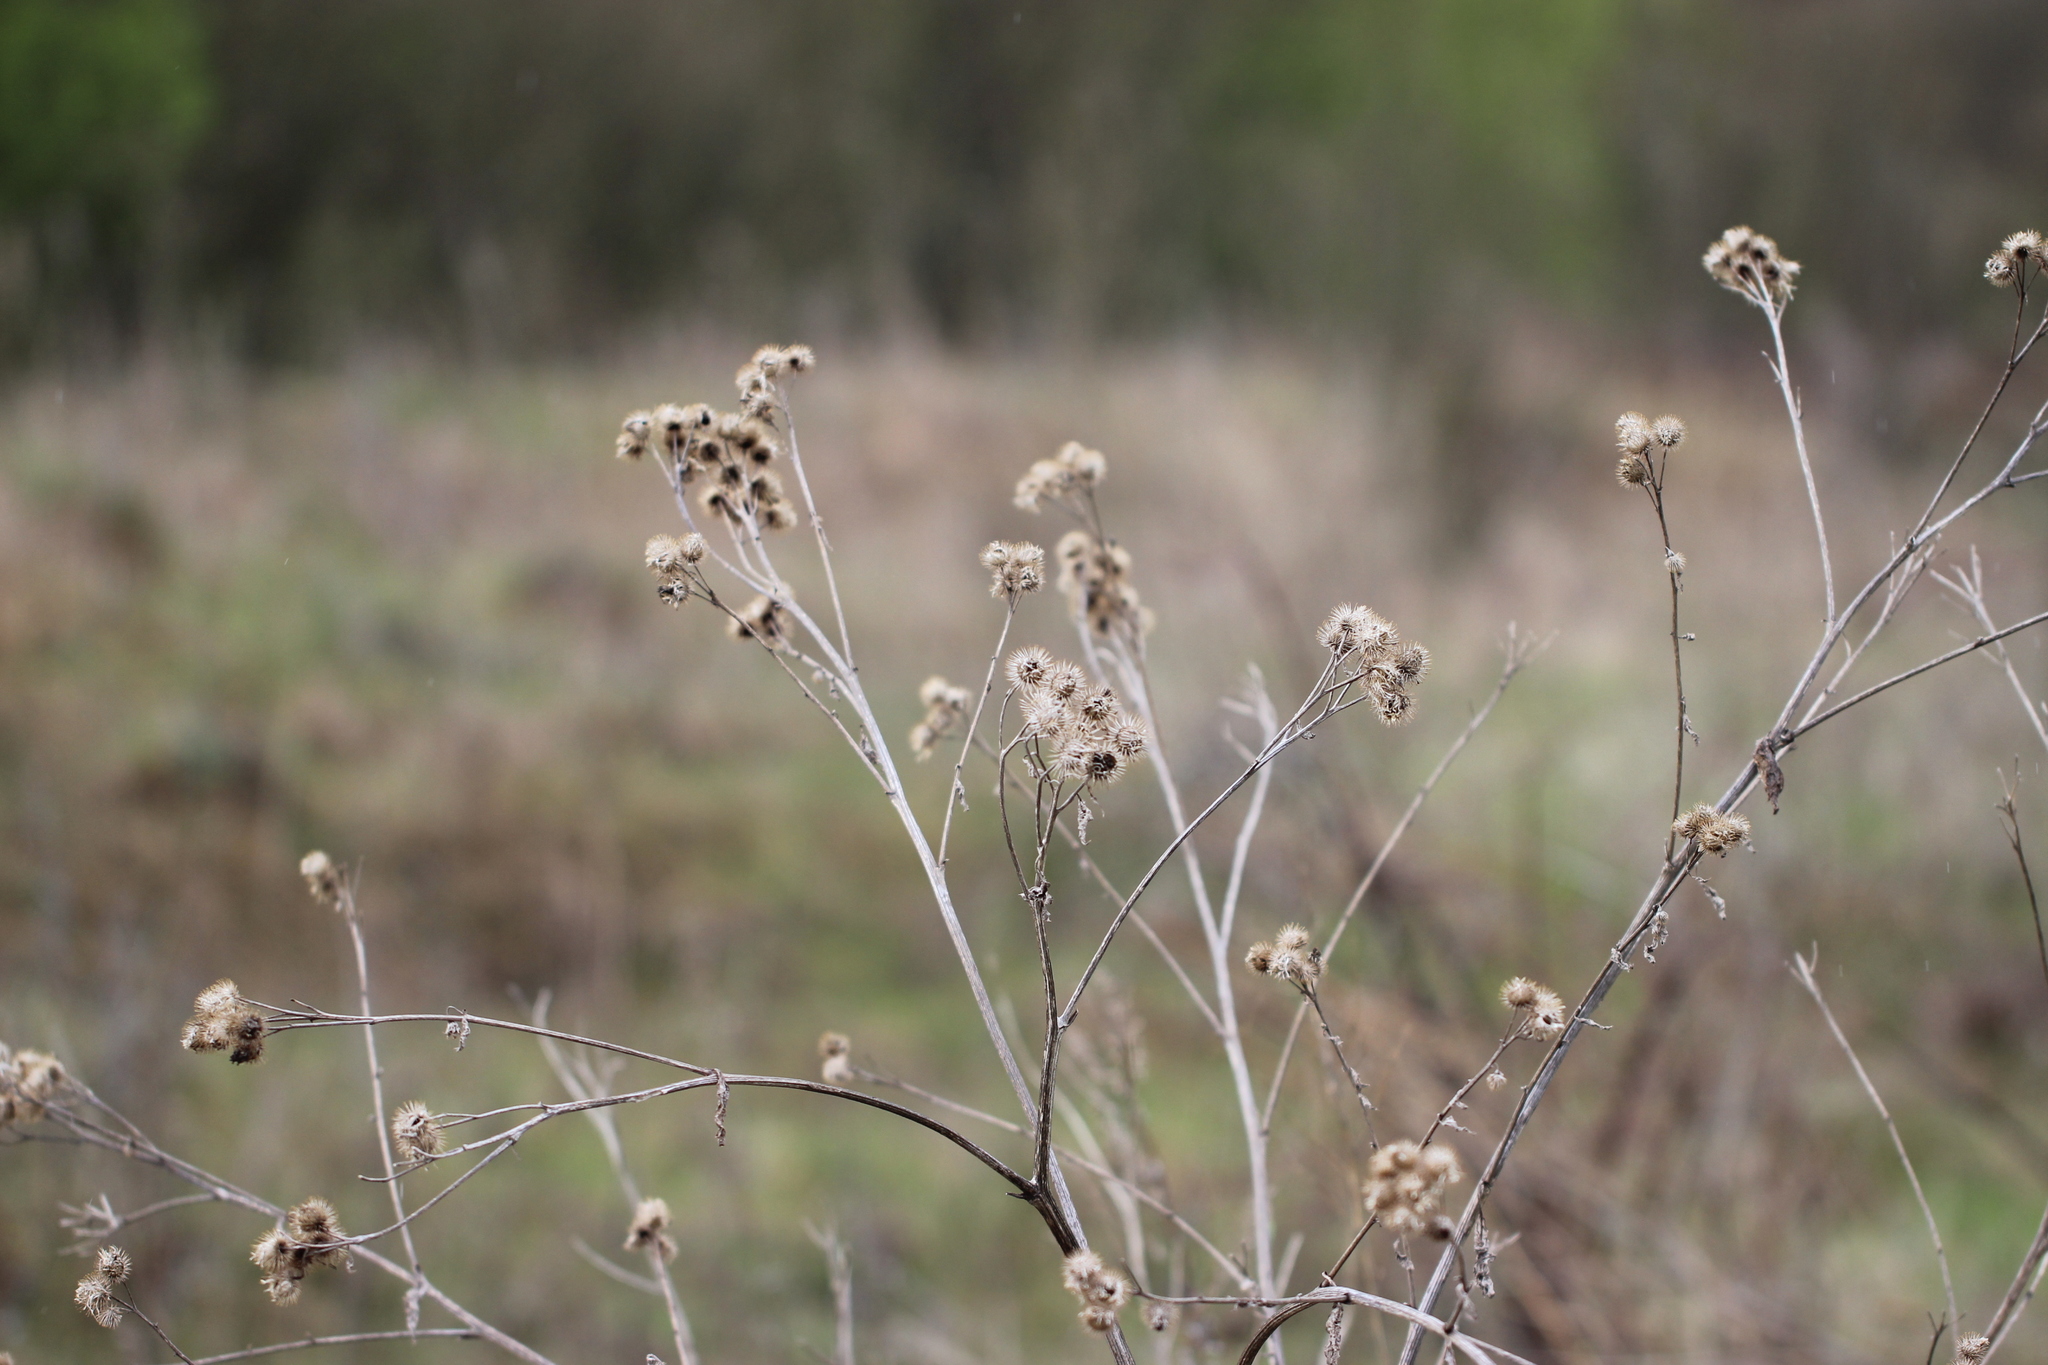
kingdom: Plantae
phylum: Tracheophyta
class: Magnoliopsida
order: Asterales
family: Asteraceae
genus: Arctium
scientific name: Arctium tomentosum
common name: Woolly burdock
